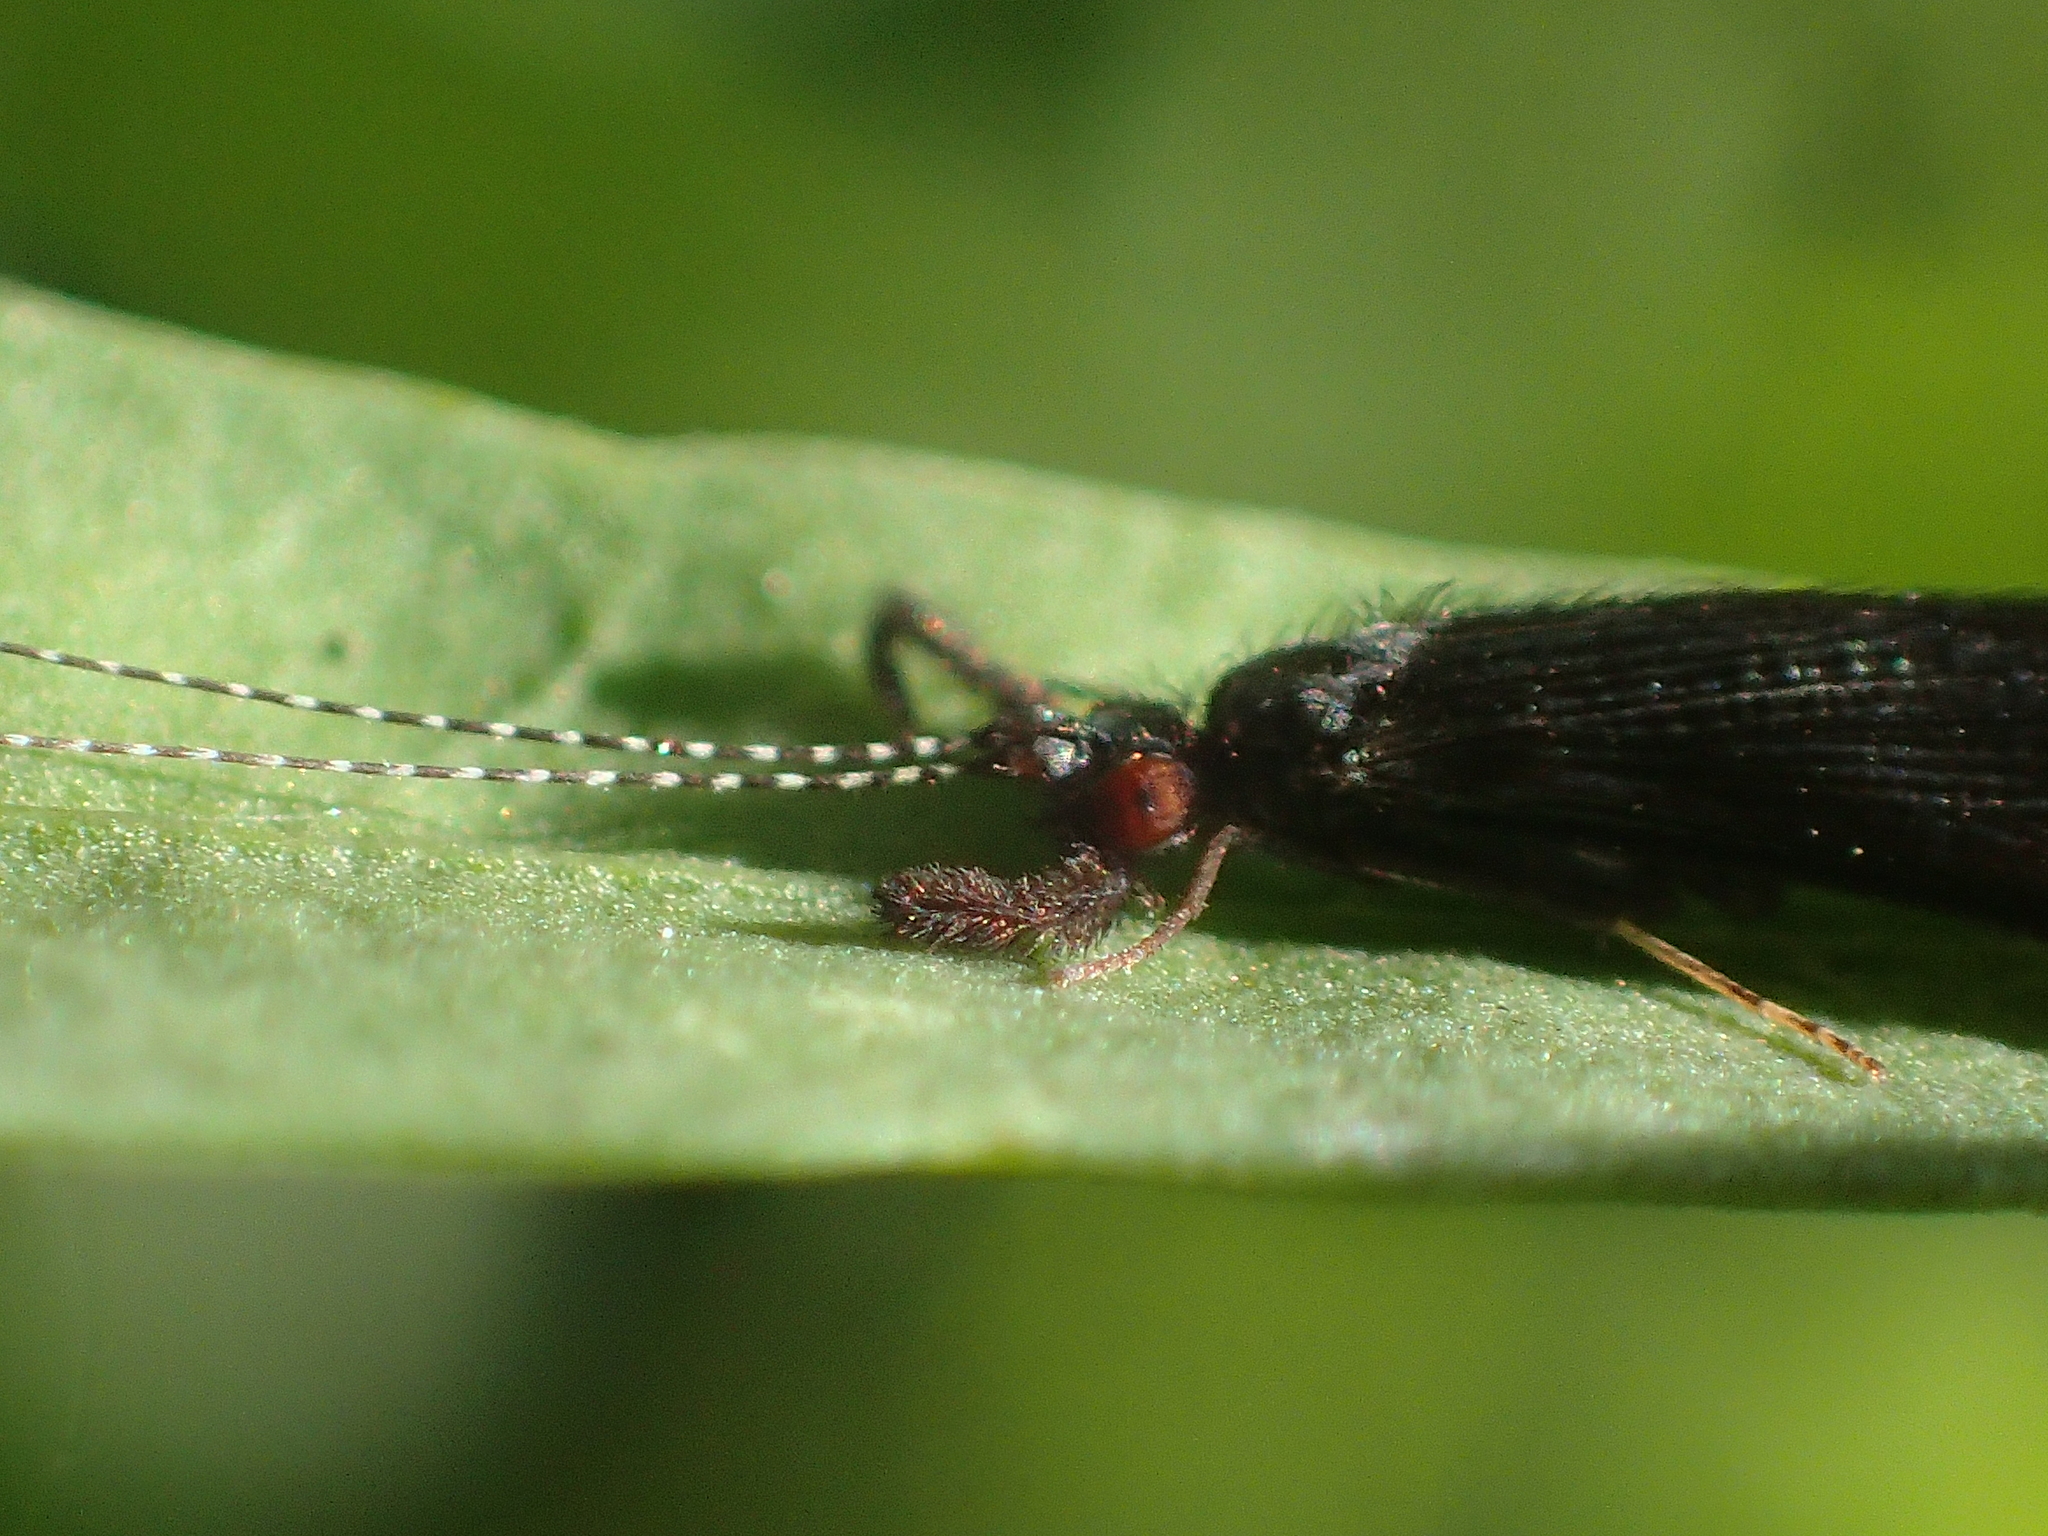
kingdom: Animalia
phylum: Arthropoda
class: Insecta
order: Trichoptera
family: Leptoceridae
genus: Mystacides
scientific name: Mystacides sepulchralis
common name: Black dancer caddisfly
